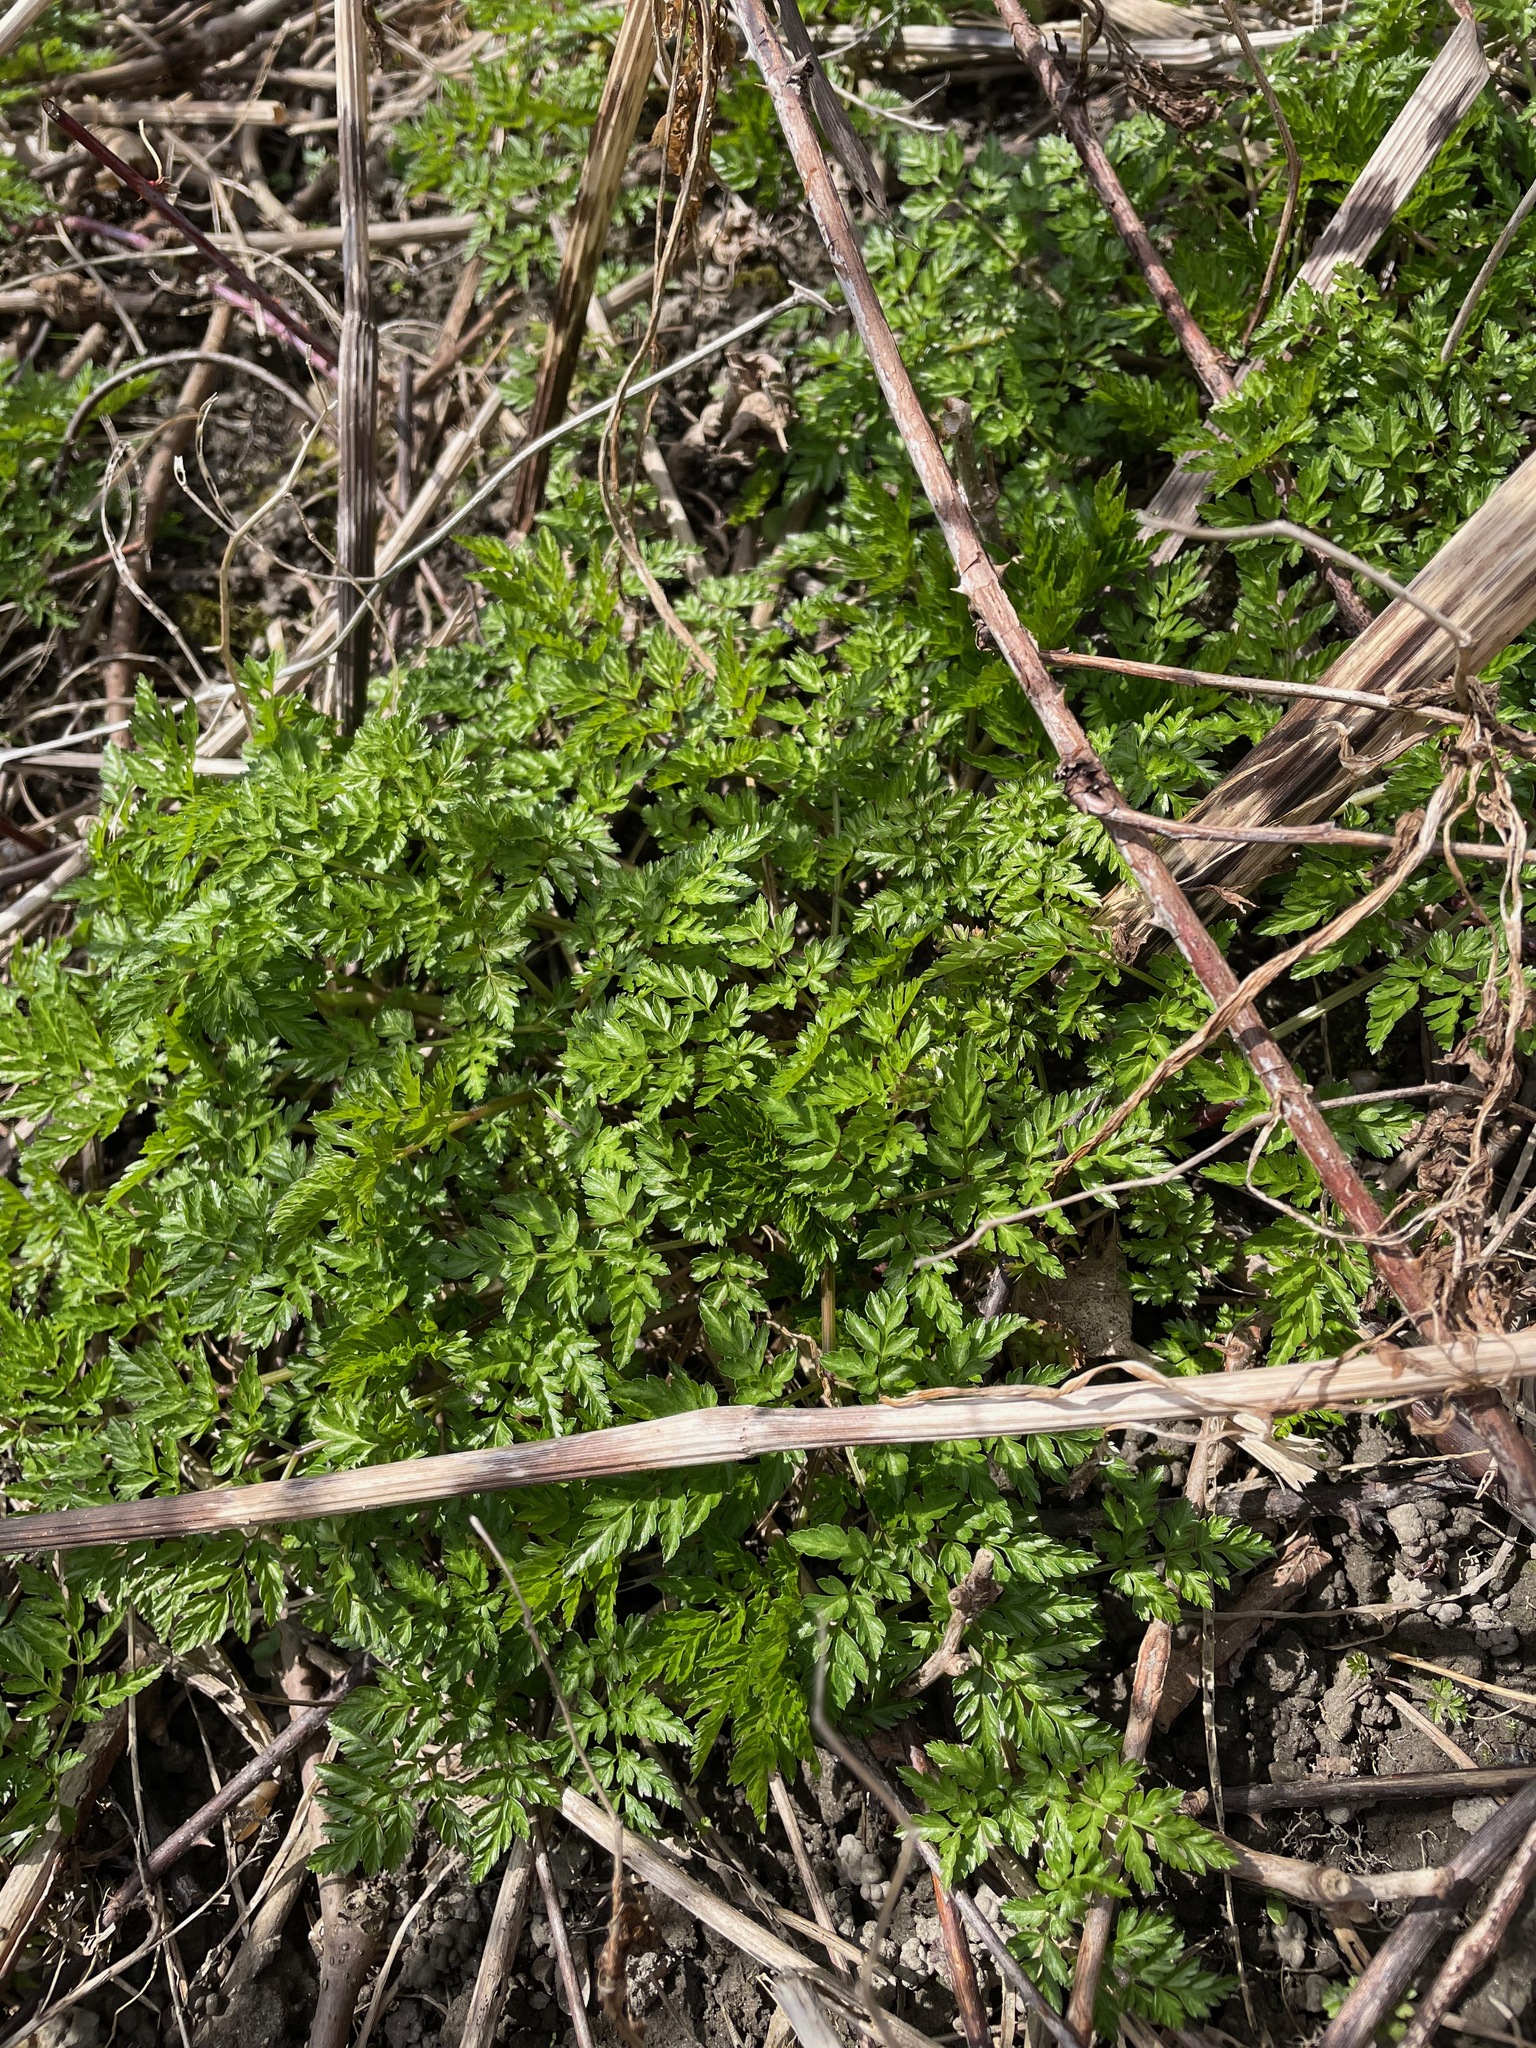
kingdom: Plantae
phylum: Tracheophyta
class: Magnoliopsida
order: Apiales
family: Apiaceae
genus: Anthriscus
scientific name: Anthriscus sylvestris
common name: Cow parsley
